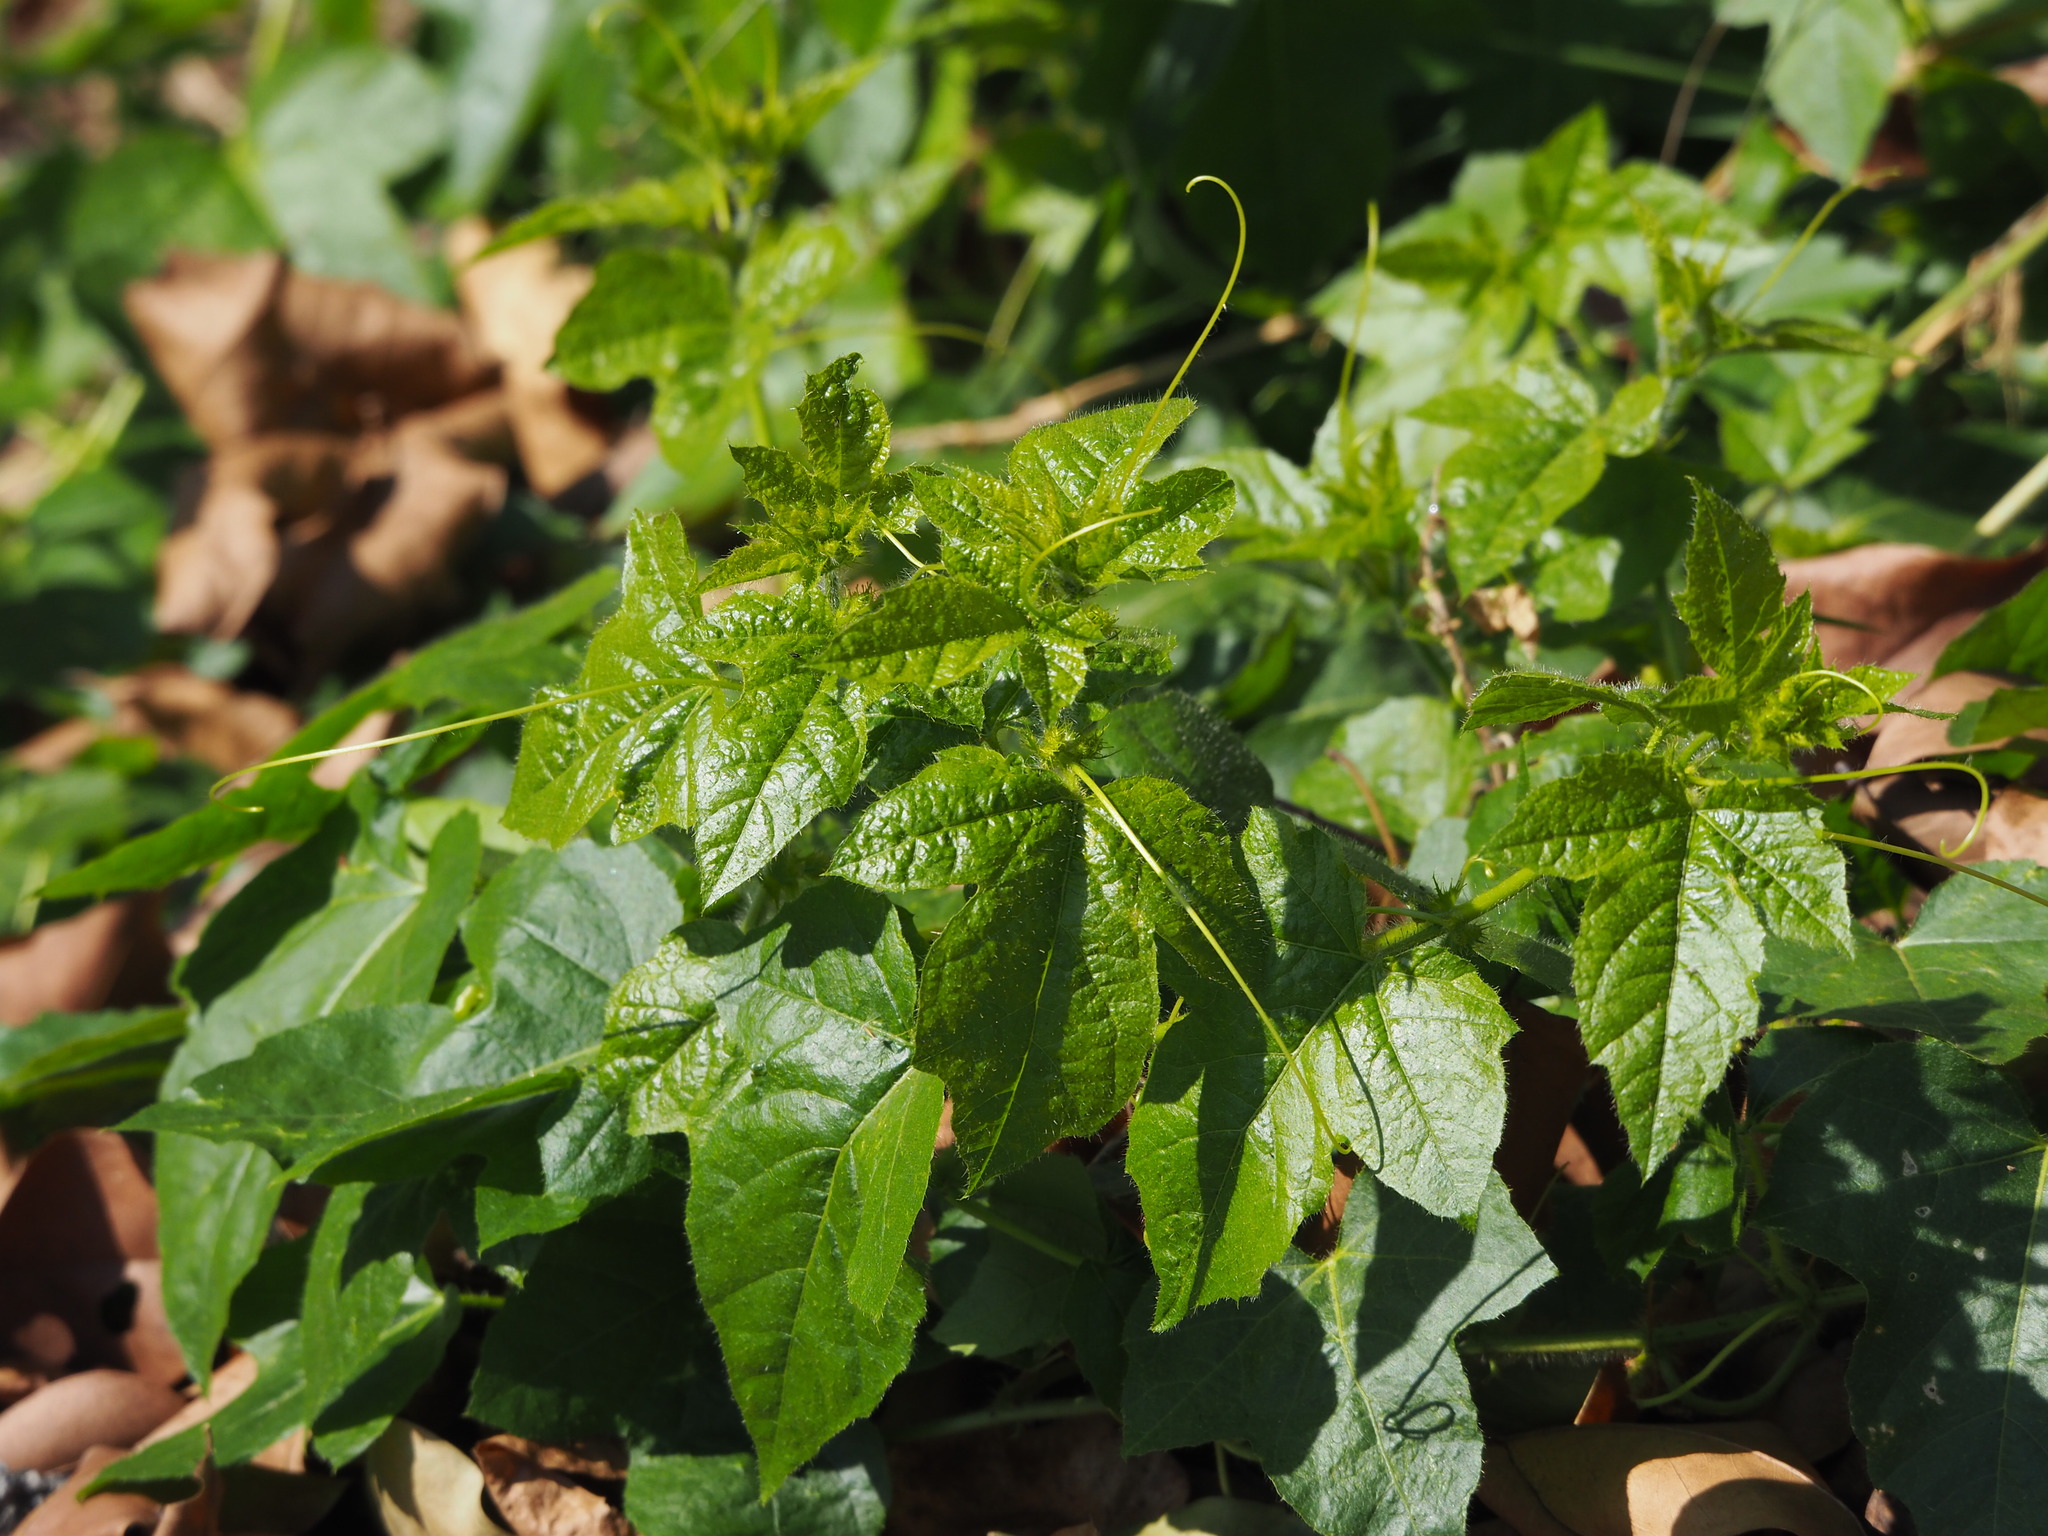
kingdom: Plantae
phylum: Tracheophyta
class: Magnoliopsida
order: Malpighiales
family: Passifloraceae
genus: Passiflora
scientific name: Passiflora vesicaria
